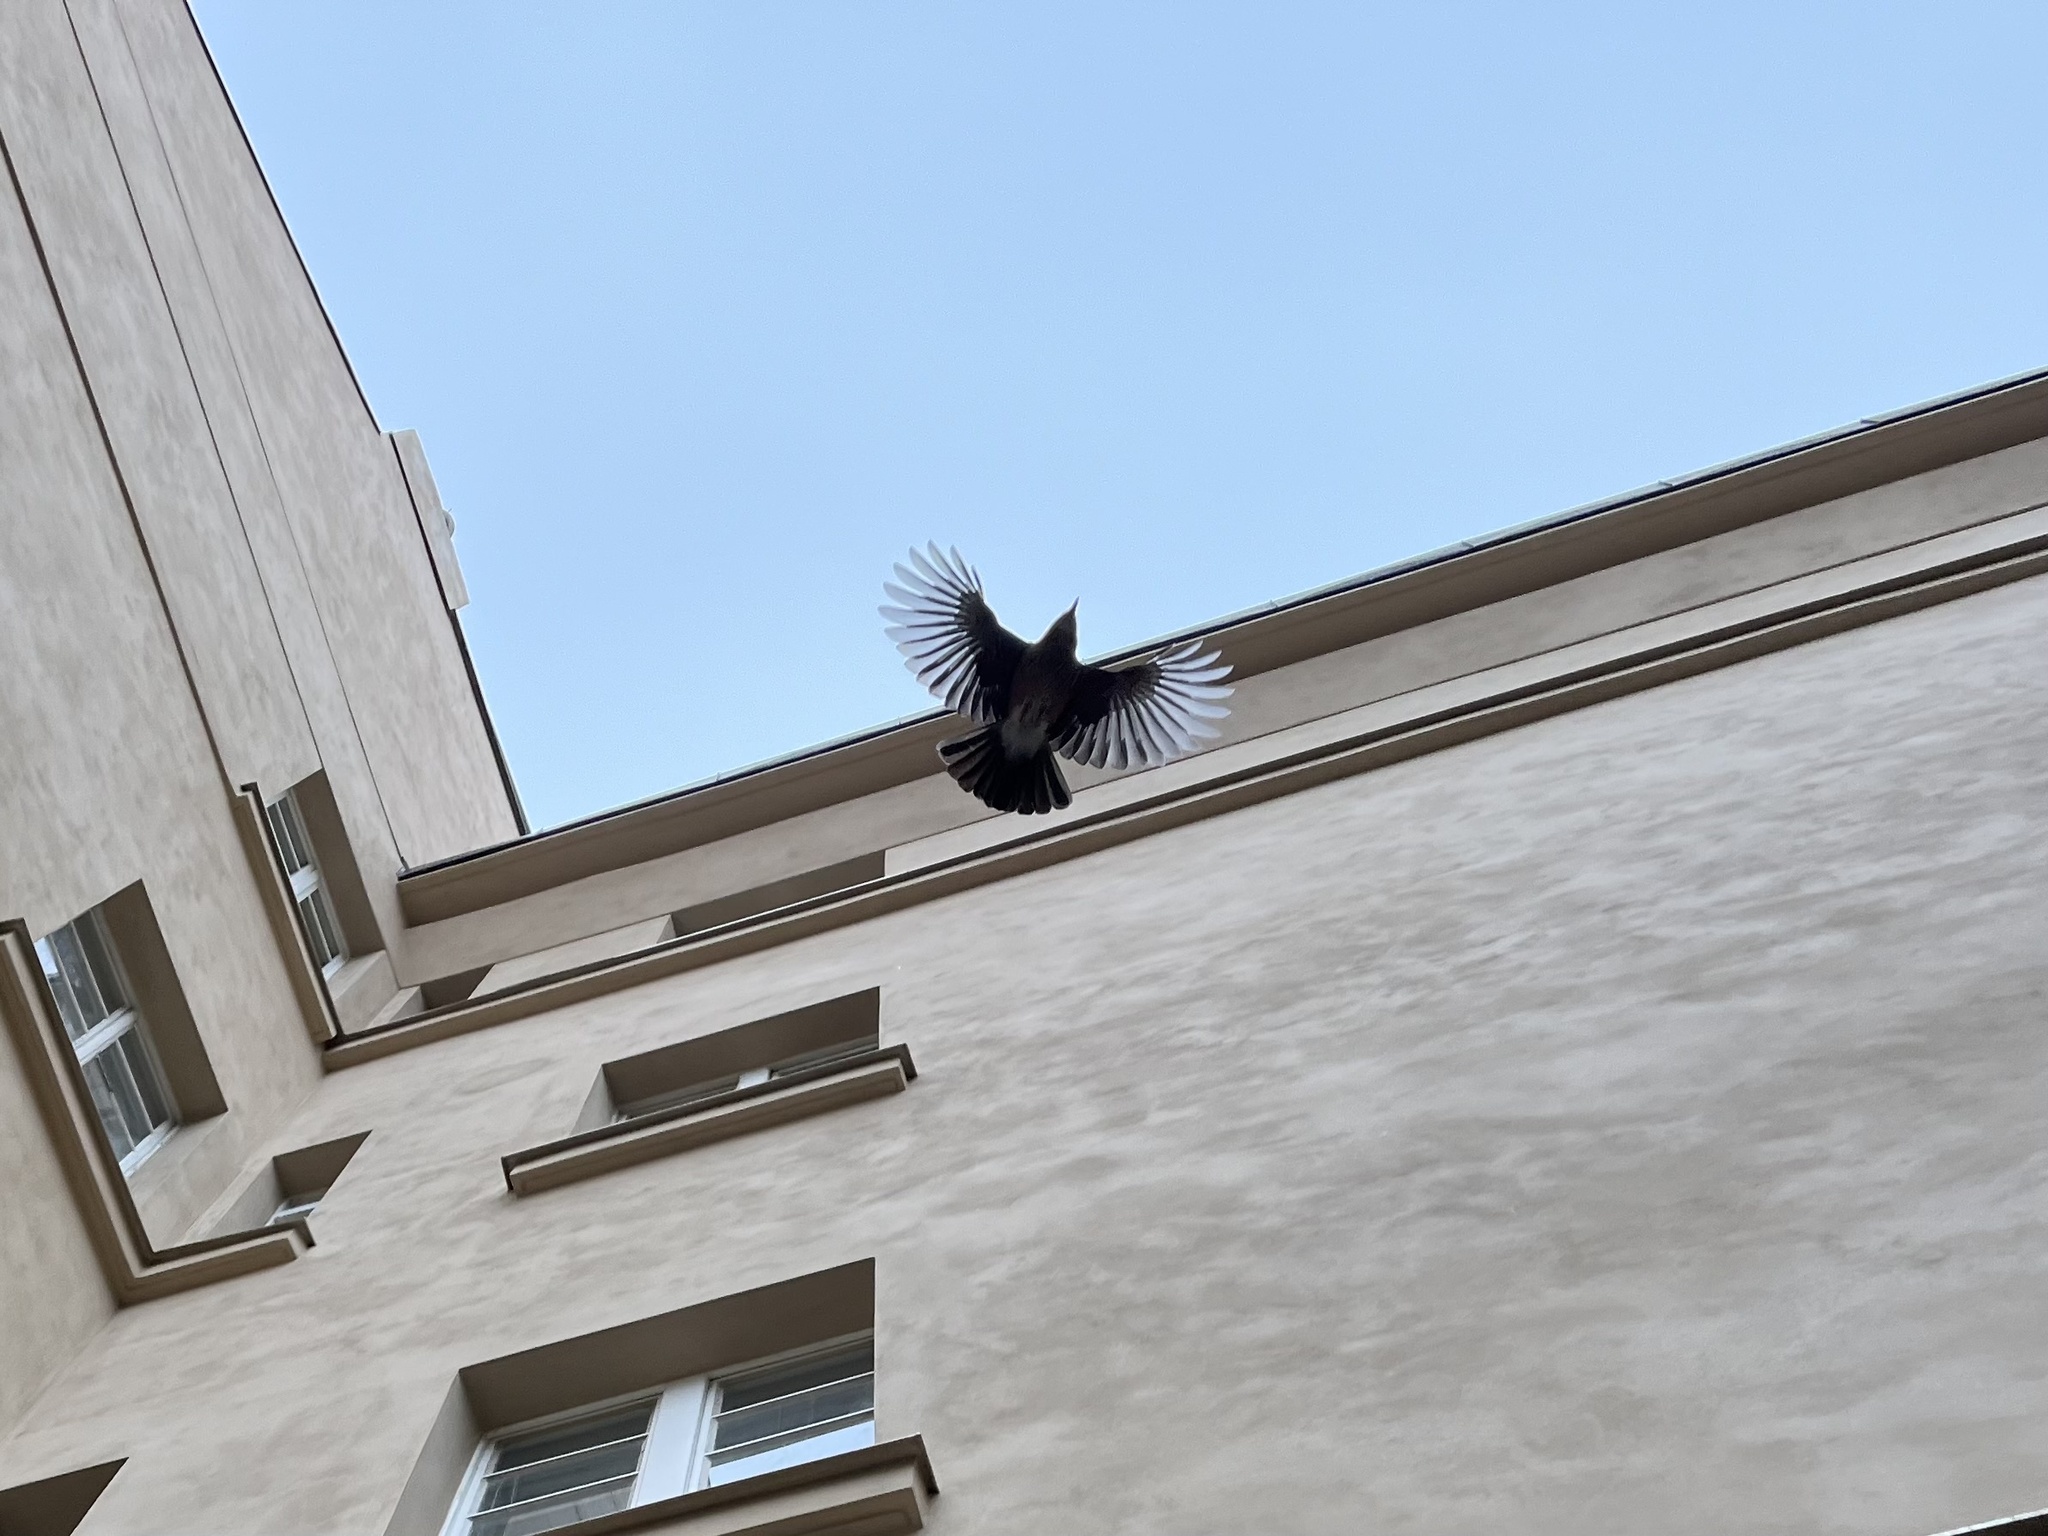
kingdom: Animalia
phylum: Chordata
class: Aves
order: Passeriformes
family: Corvidae
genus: Garrulus
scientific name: Garrulus glandarius
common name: Eurasian jay
